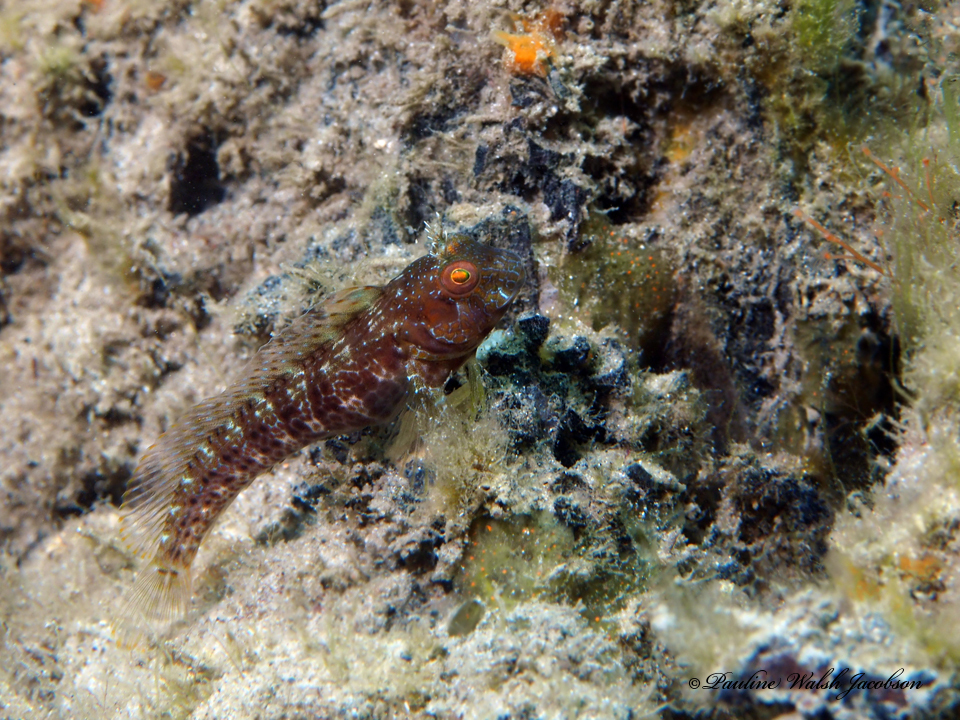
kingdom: Animalia
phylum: Chordata
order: Perciformes
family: Blenniidae
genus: Parablennius
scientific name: Parablennius marmoreus
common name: Seaweed blenny
